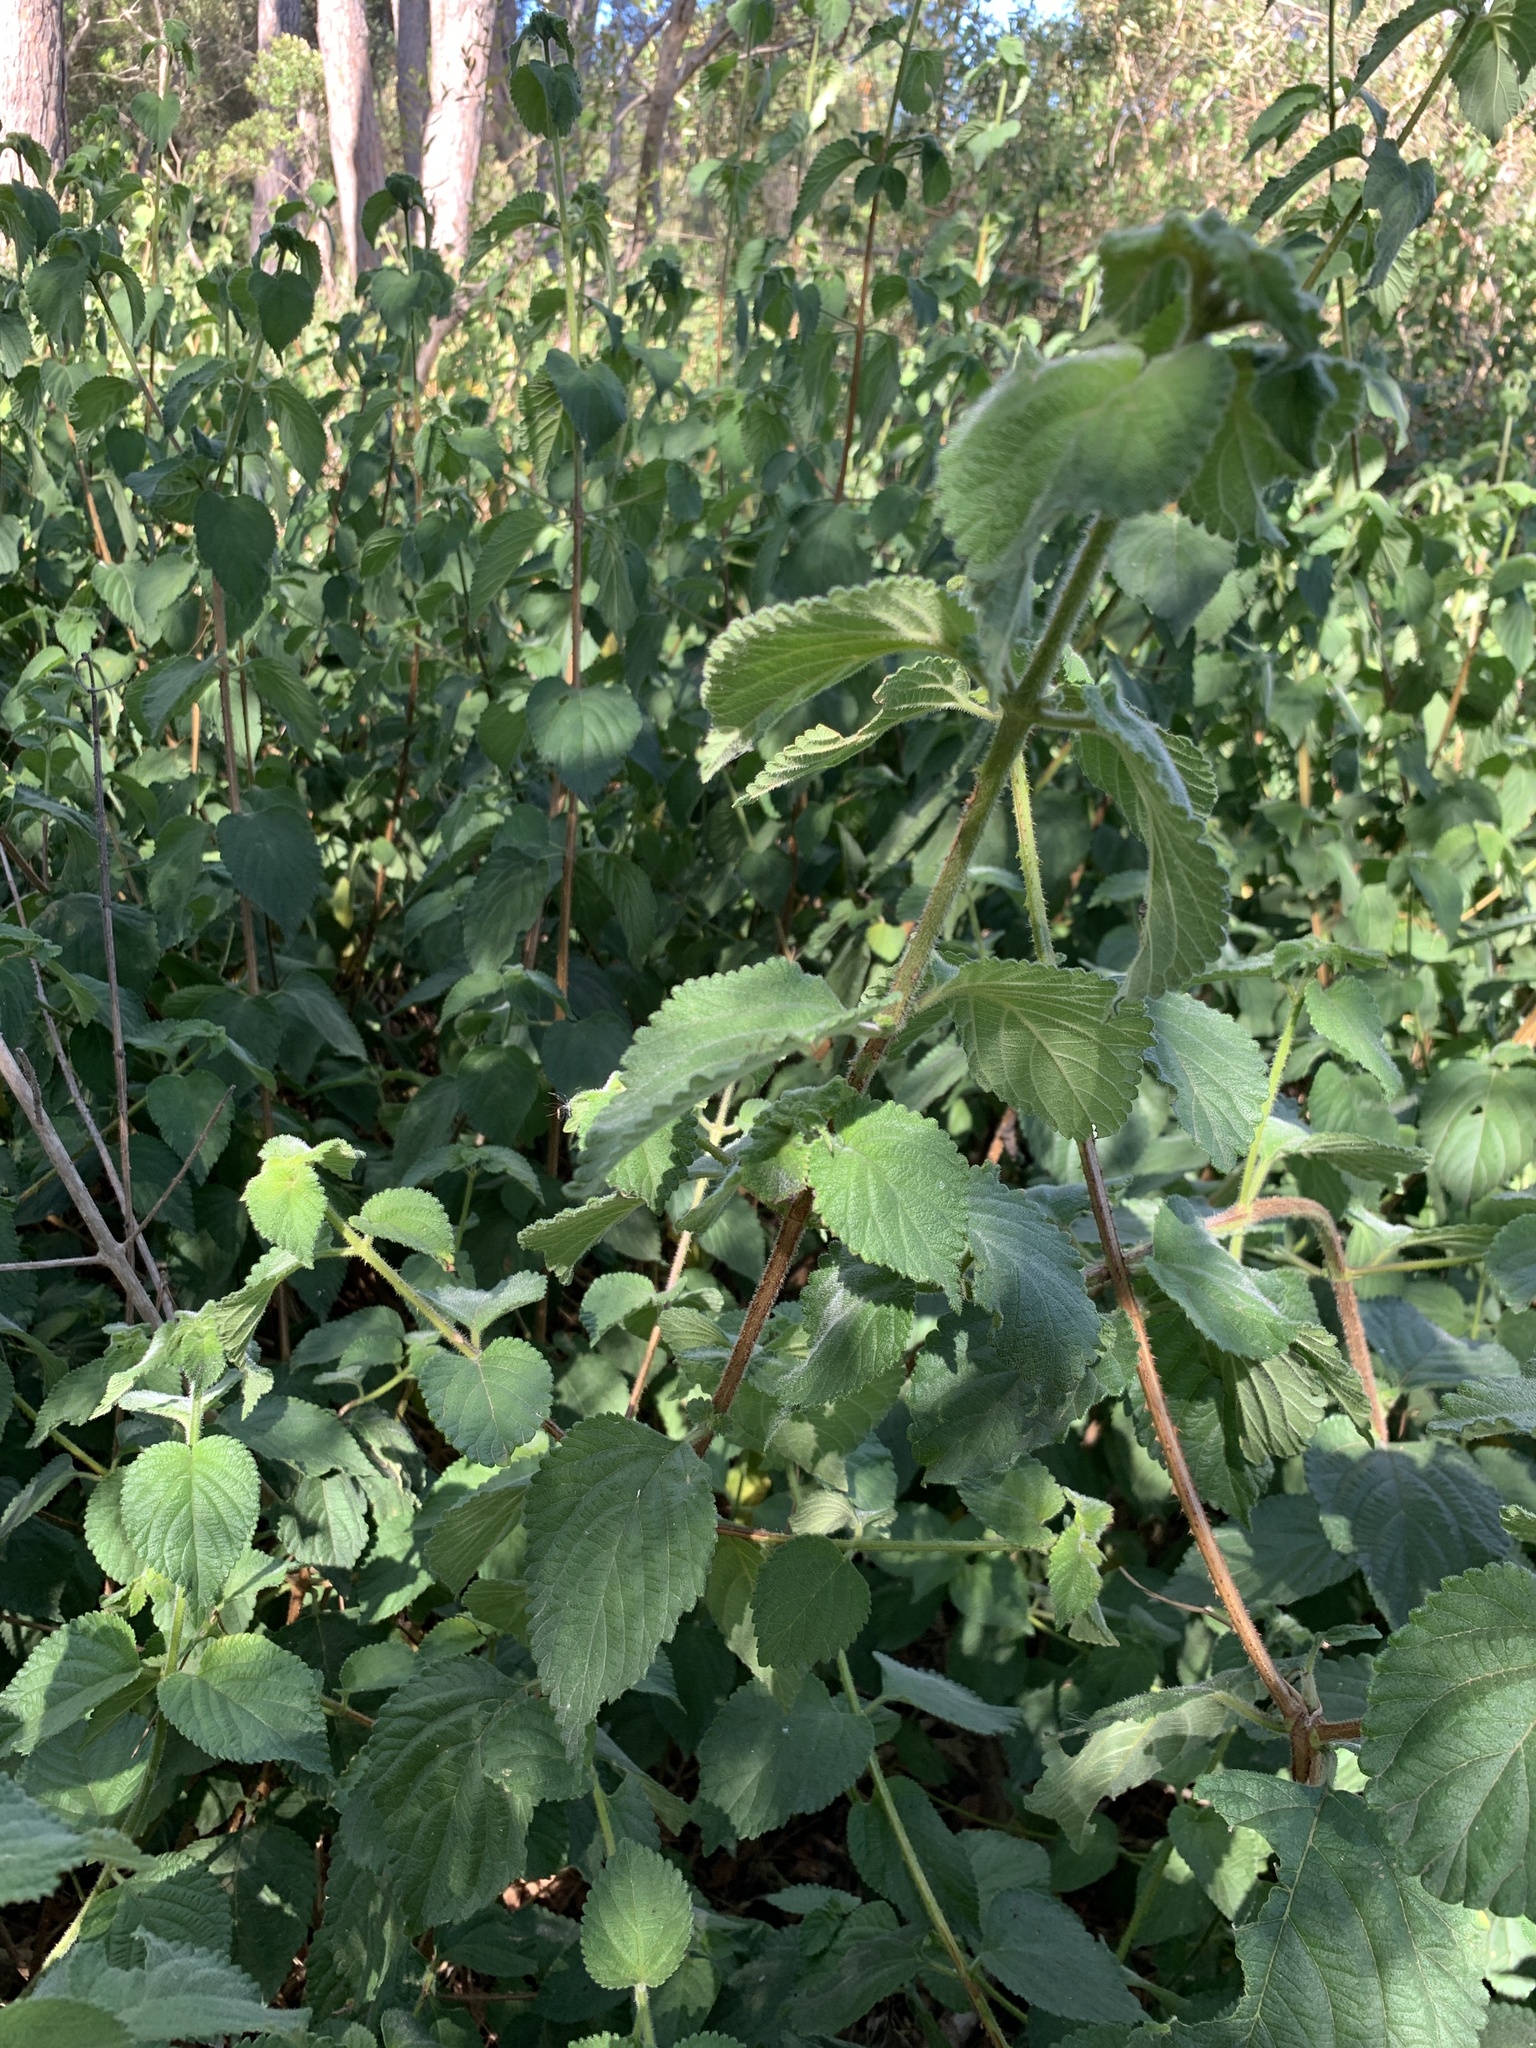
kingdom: Plantae
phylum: Tracheophyta
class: Magnoliopsida
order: Lamiales
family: Verbenaceae
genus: Lantana
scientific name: Lantana camara
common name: Lantana
